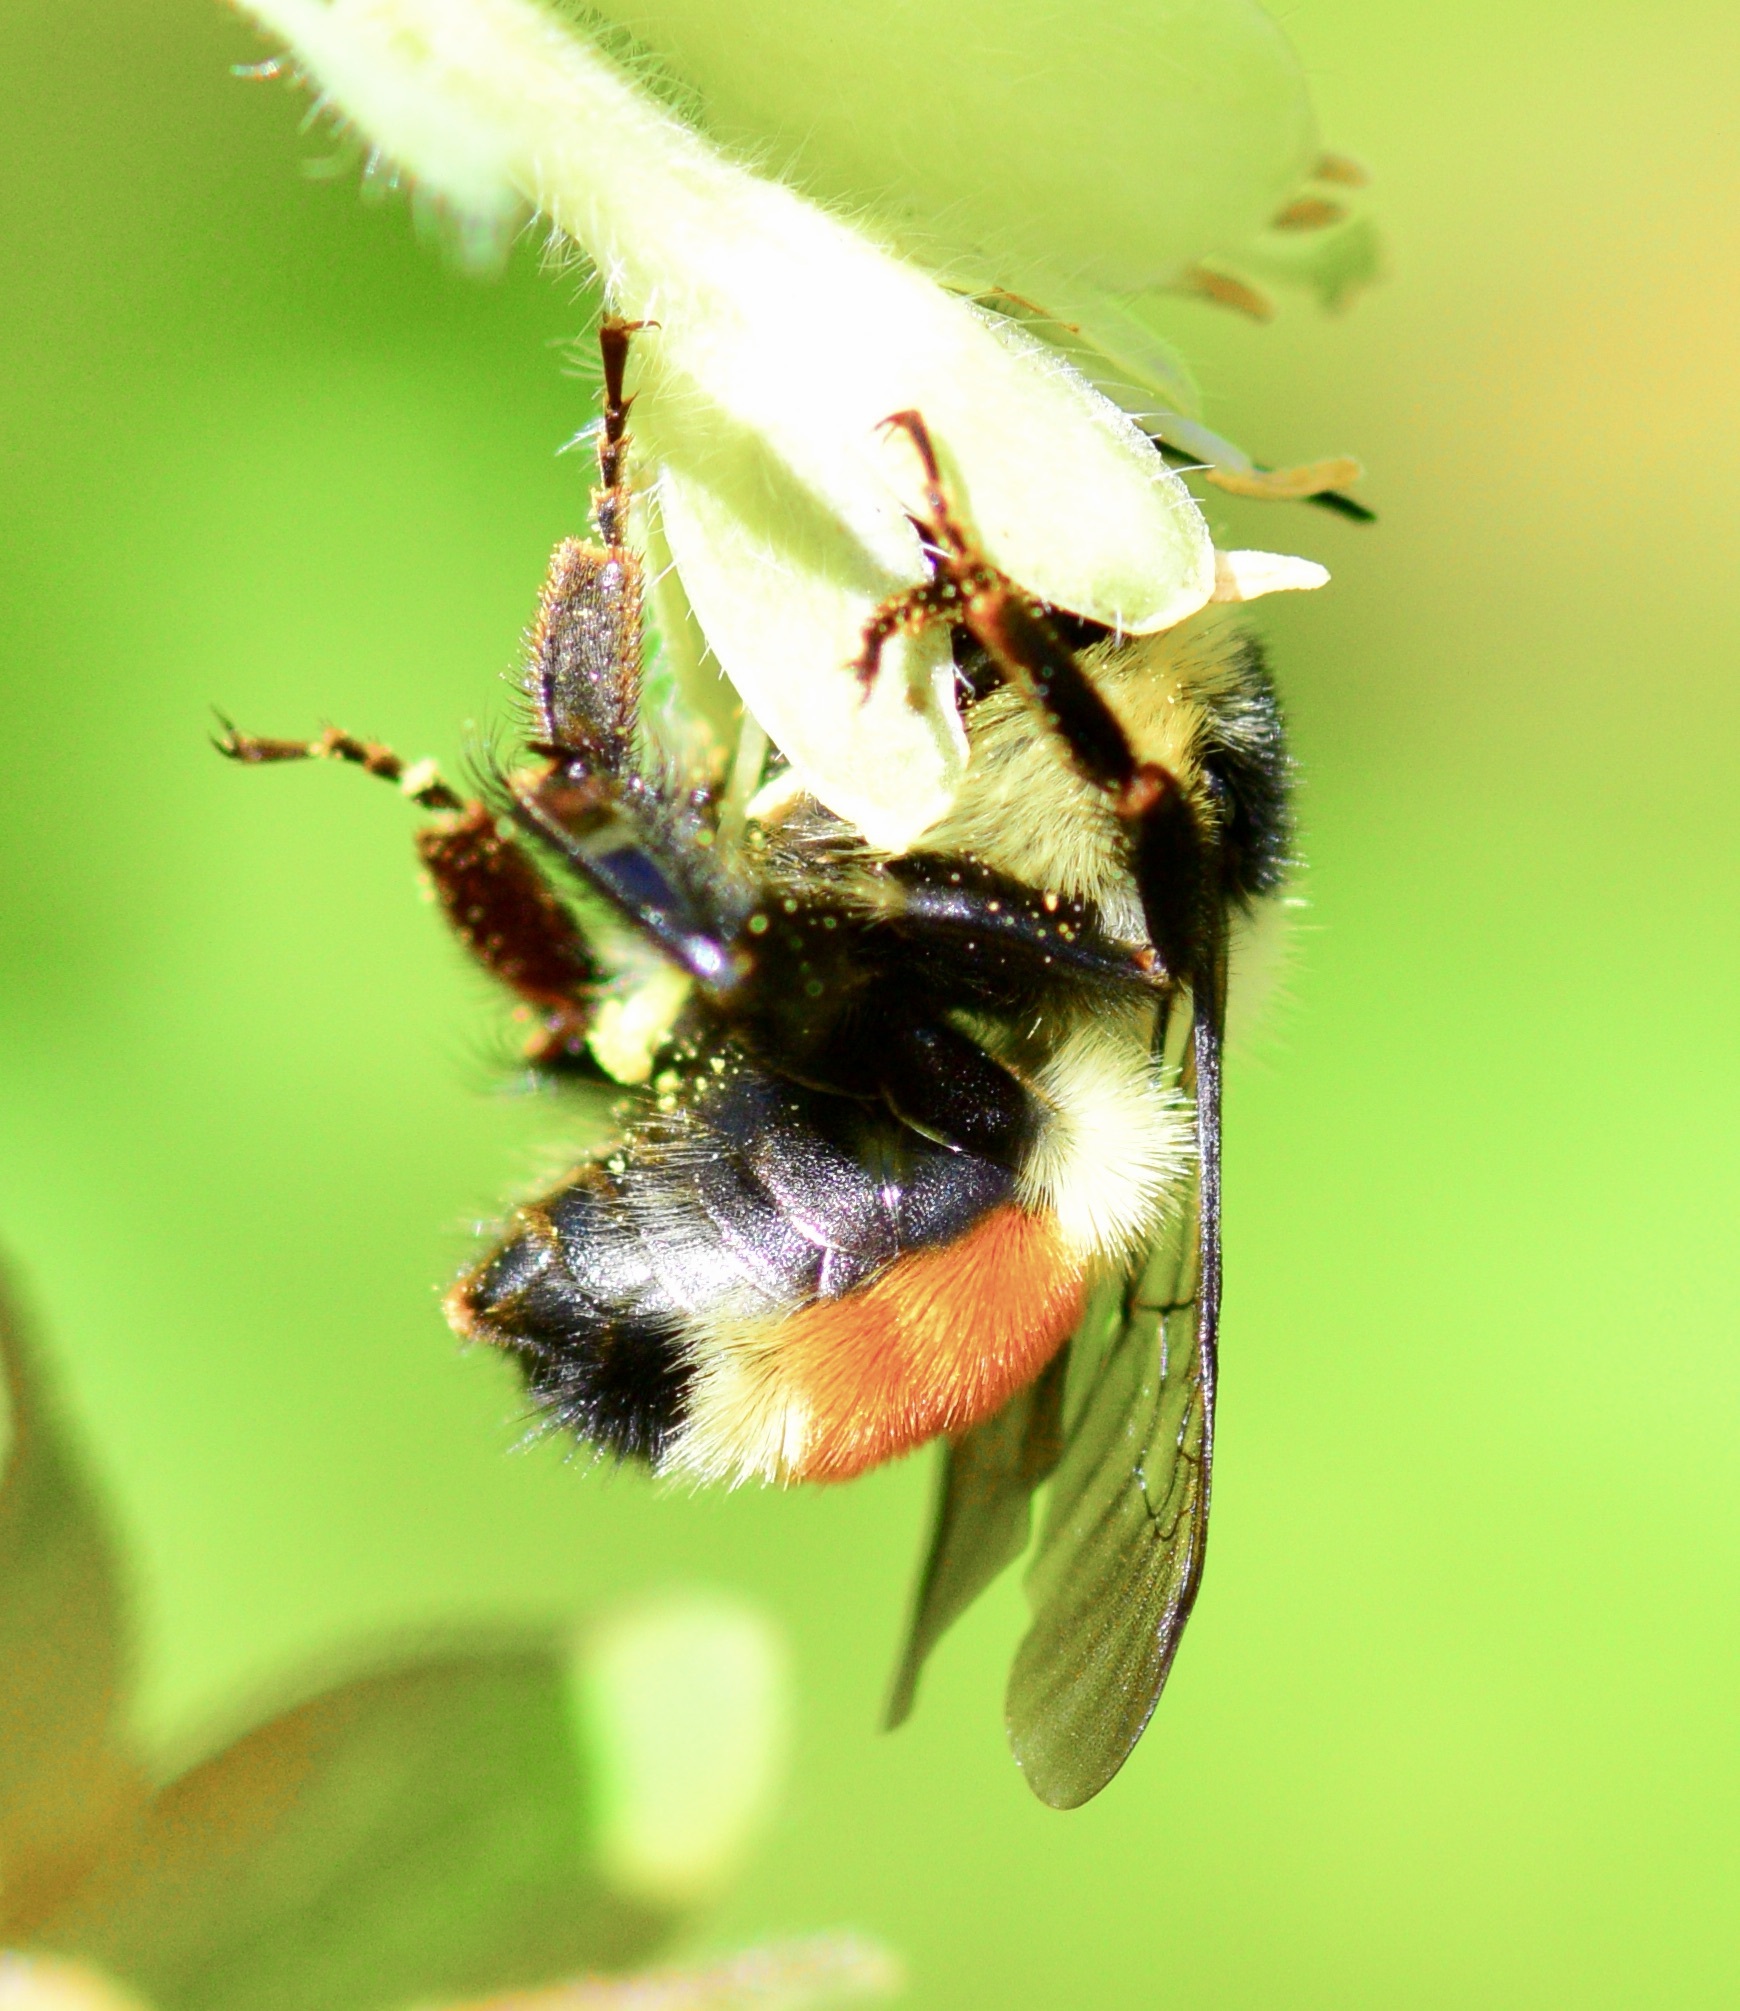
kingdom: Animalia
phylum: Arthropoda
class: Insecta
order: Hymenoptera
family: Apidae
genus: Bombus
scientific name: Bombus ternarius
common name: Tri-colored bumble bee
